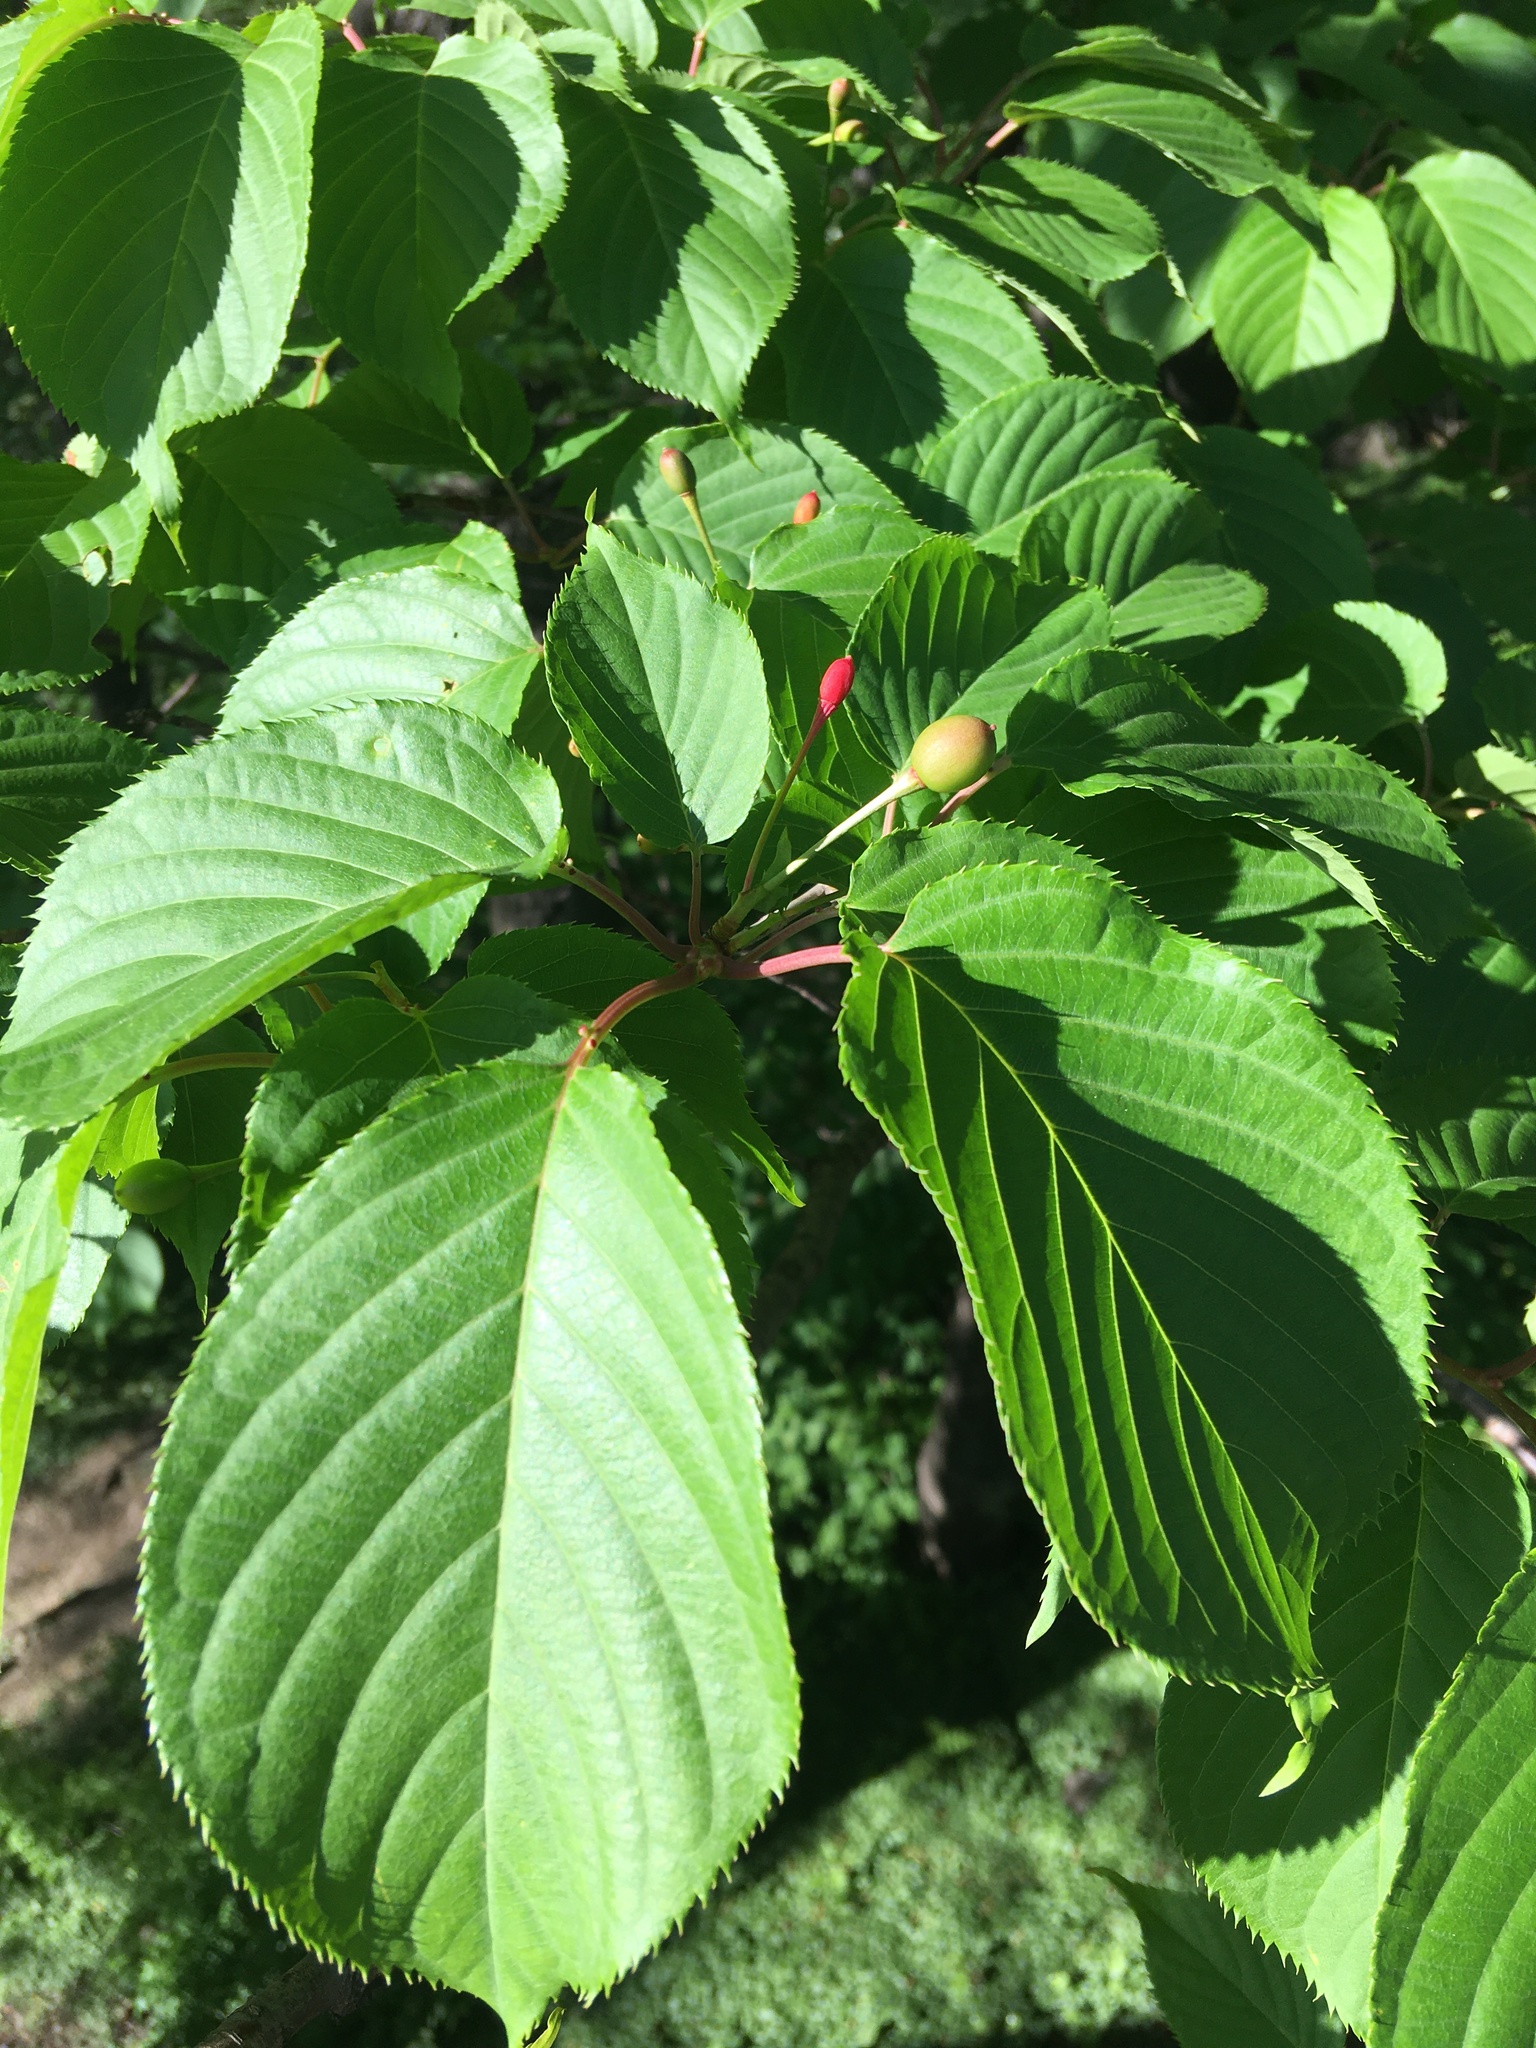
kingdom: Plantae
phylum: Tracheophyta
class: Magnoliopsida
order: Rosales
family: Rosaceae
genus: Prunus
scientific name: Prunus sargentii
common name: Sargent cherry
